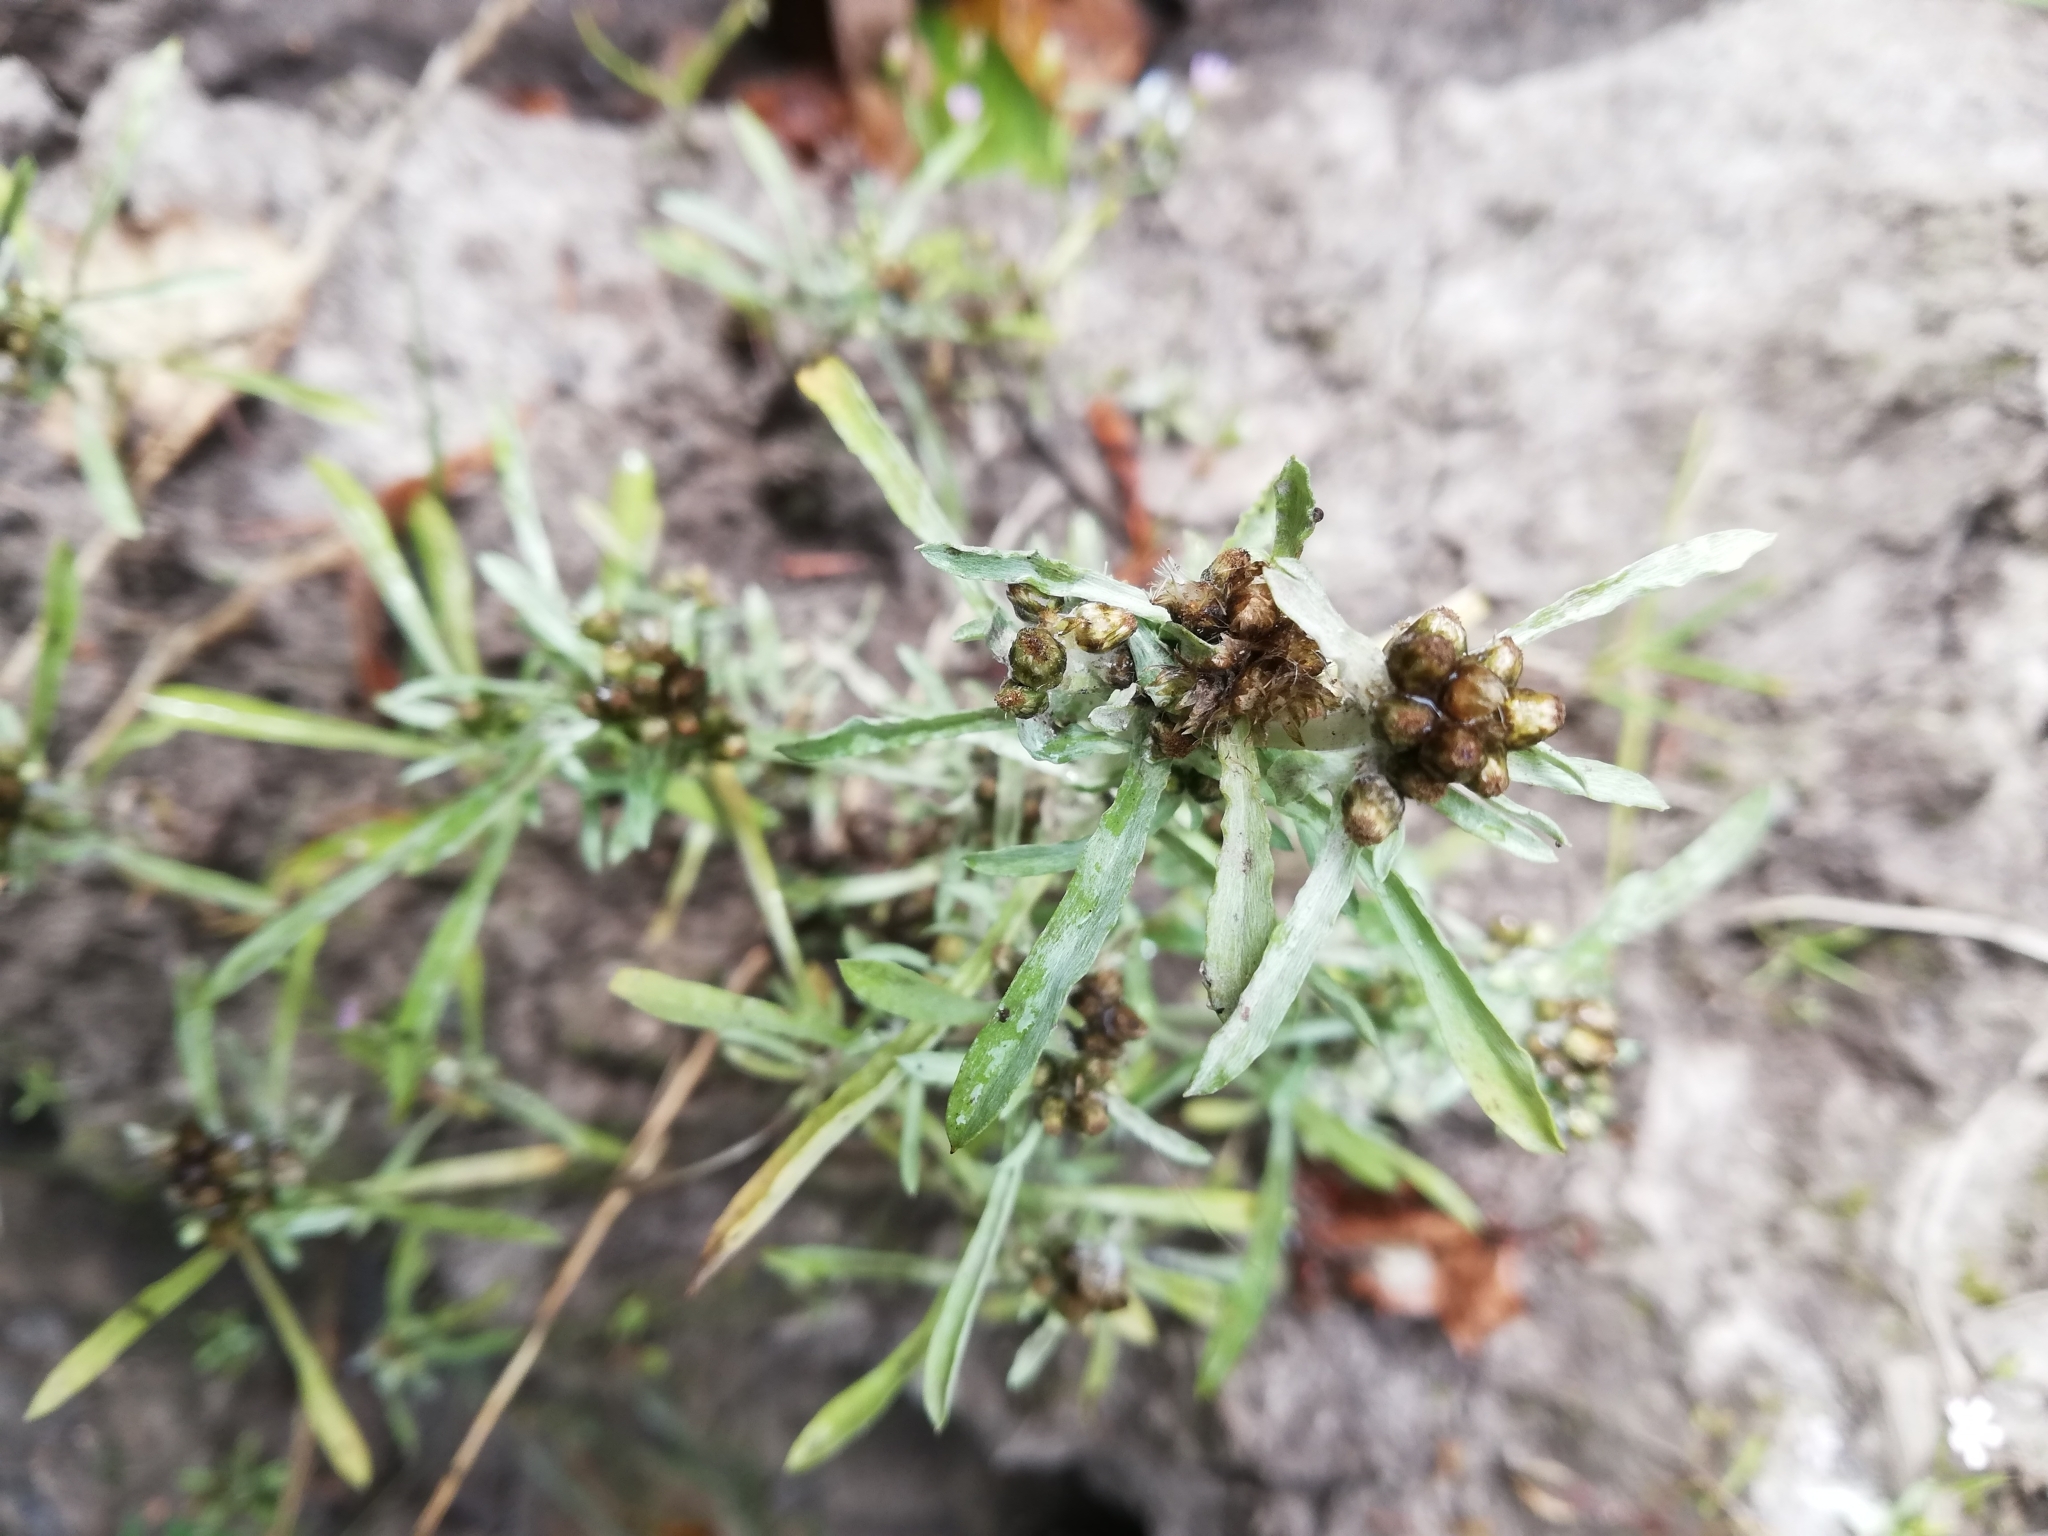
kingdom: Plantae
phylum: Tracheophyta
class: Magnoliopsida
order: Asterales
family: Asteraceae
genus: Gnaphalium
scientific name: Gnaphalium uliginosum
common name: Marsh cudweed
